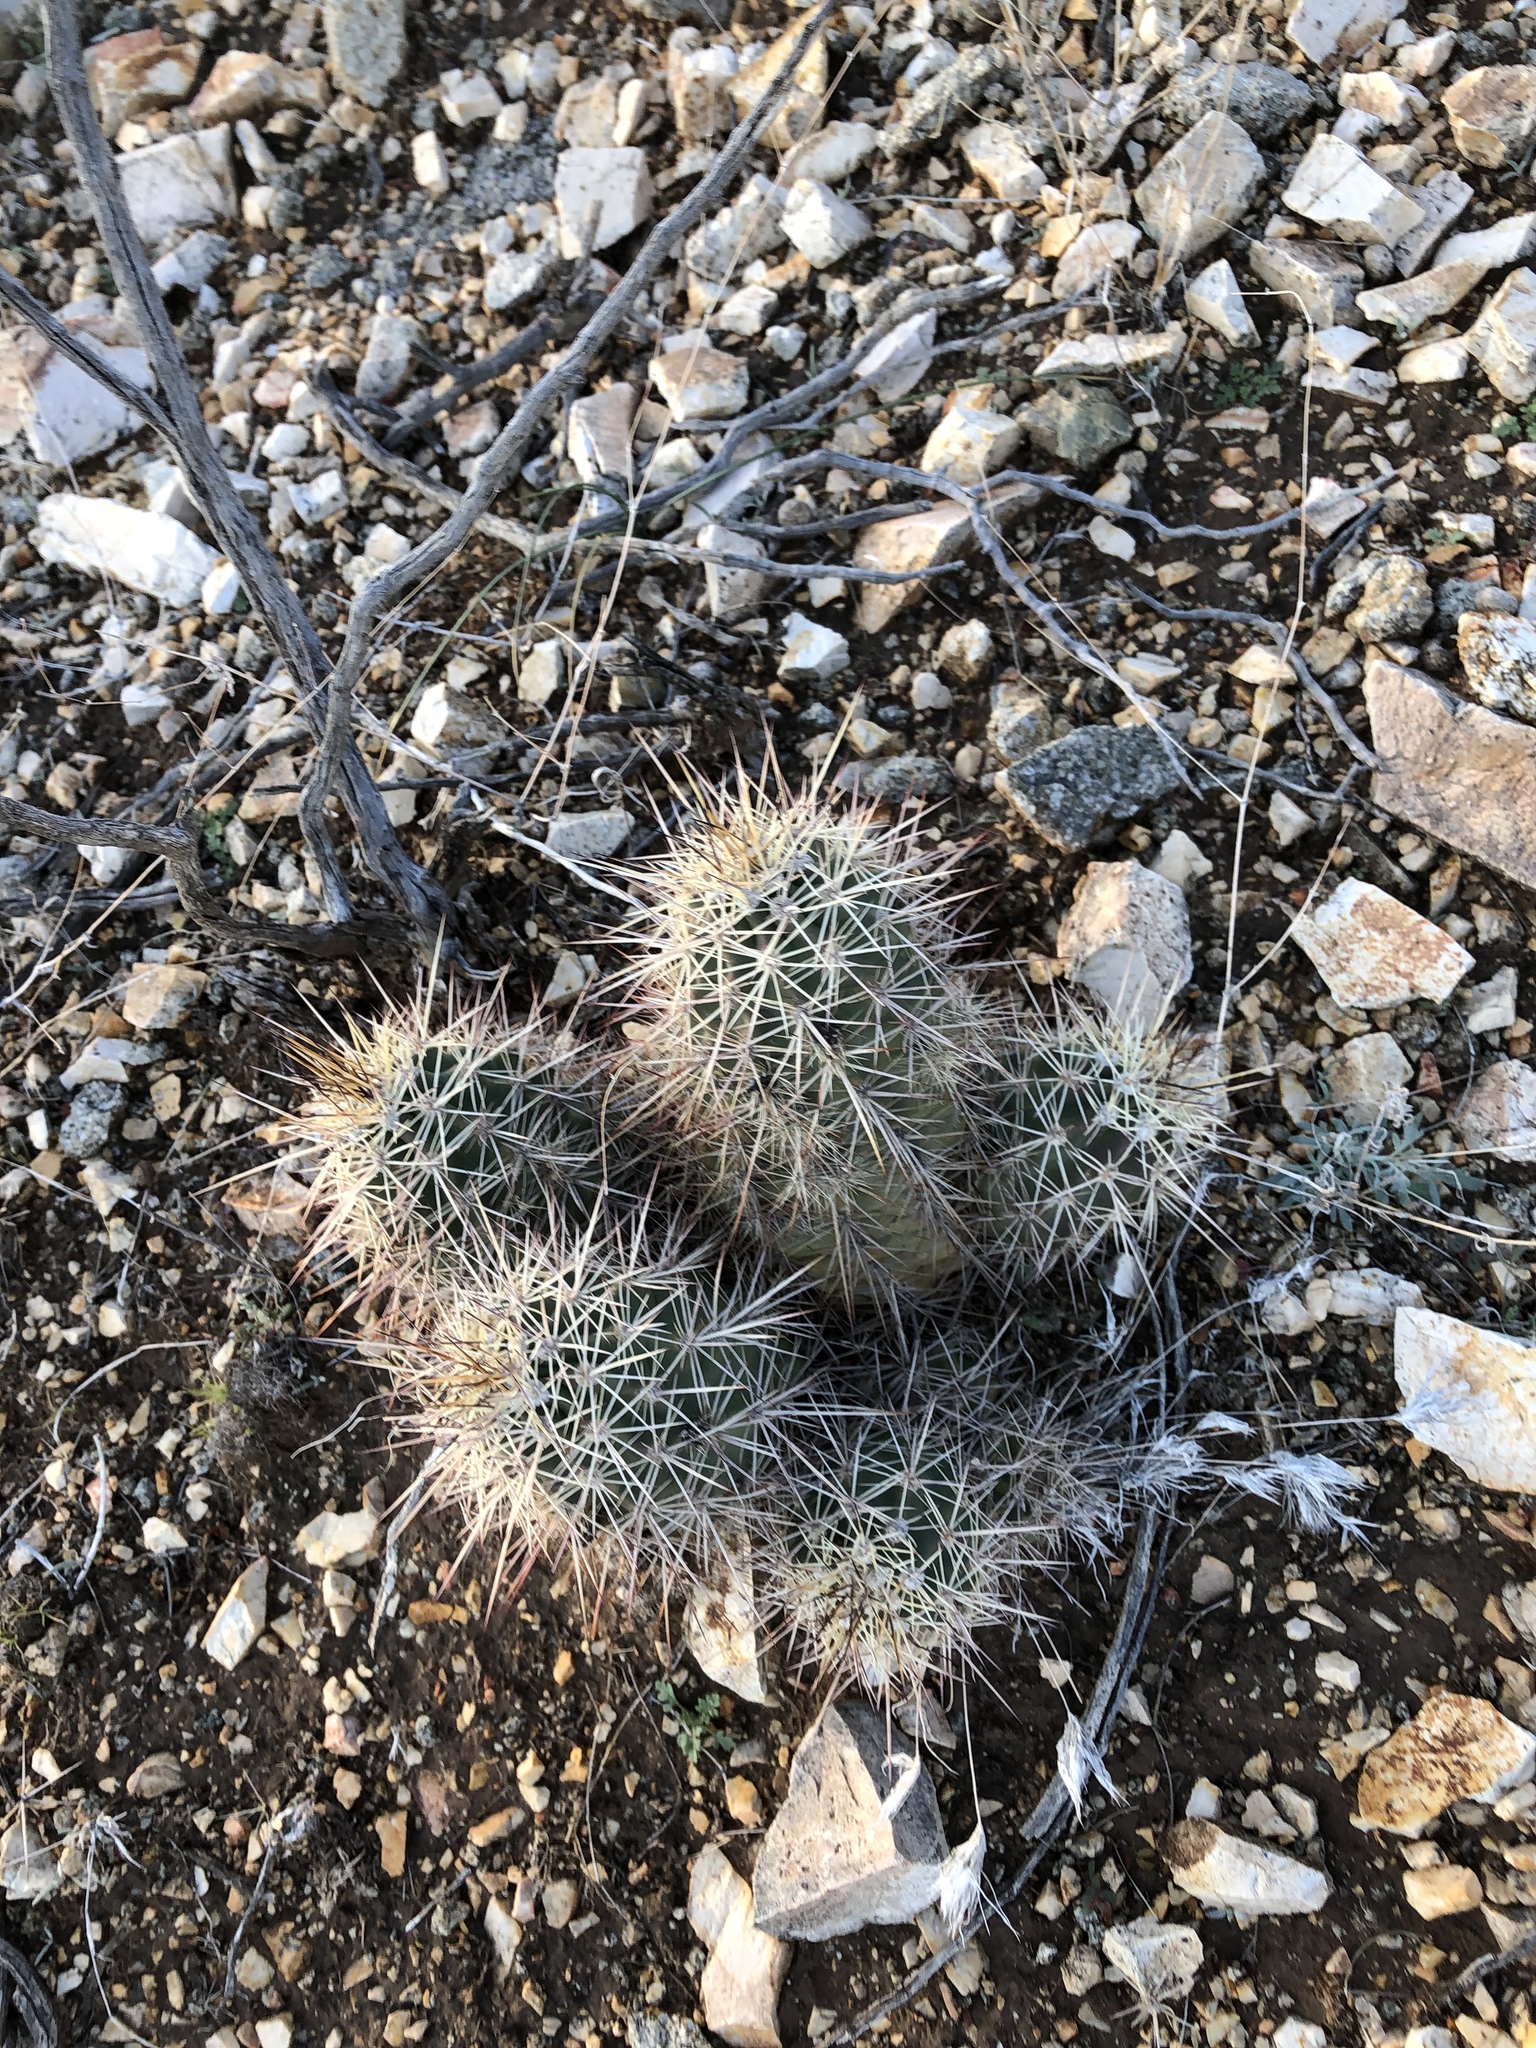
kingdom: Plantae
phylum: Tracheophyta
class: Magnoliopsida
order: Caryophyllales
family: Cactaceae
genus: Echinocereus
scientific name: Echinocereus coccineus
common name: Scarlet hedgehog cactus
